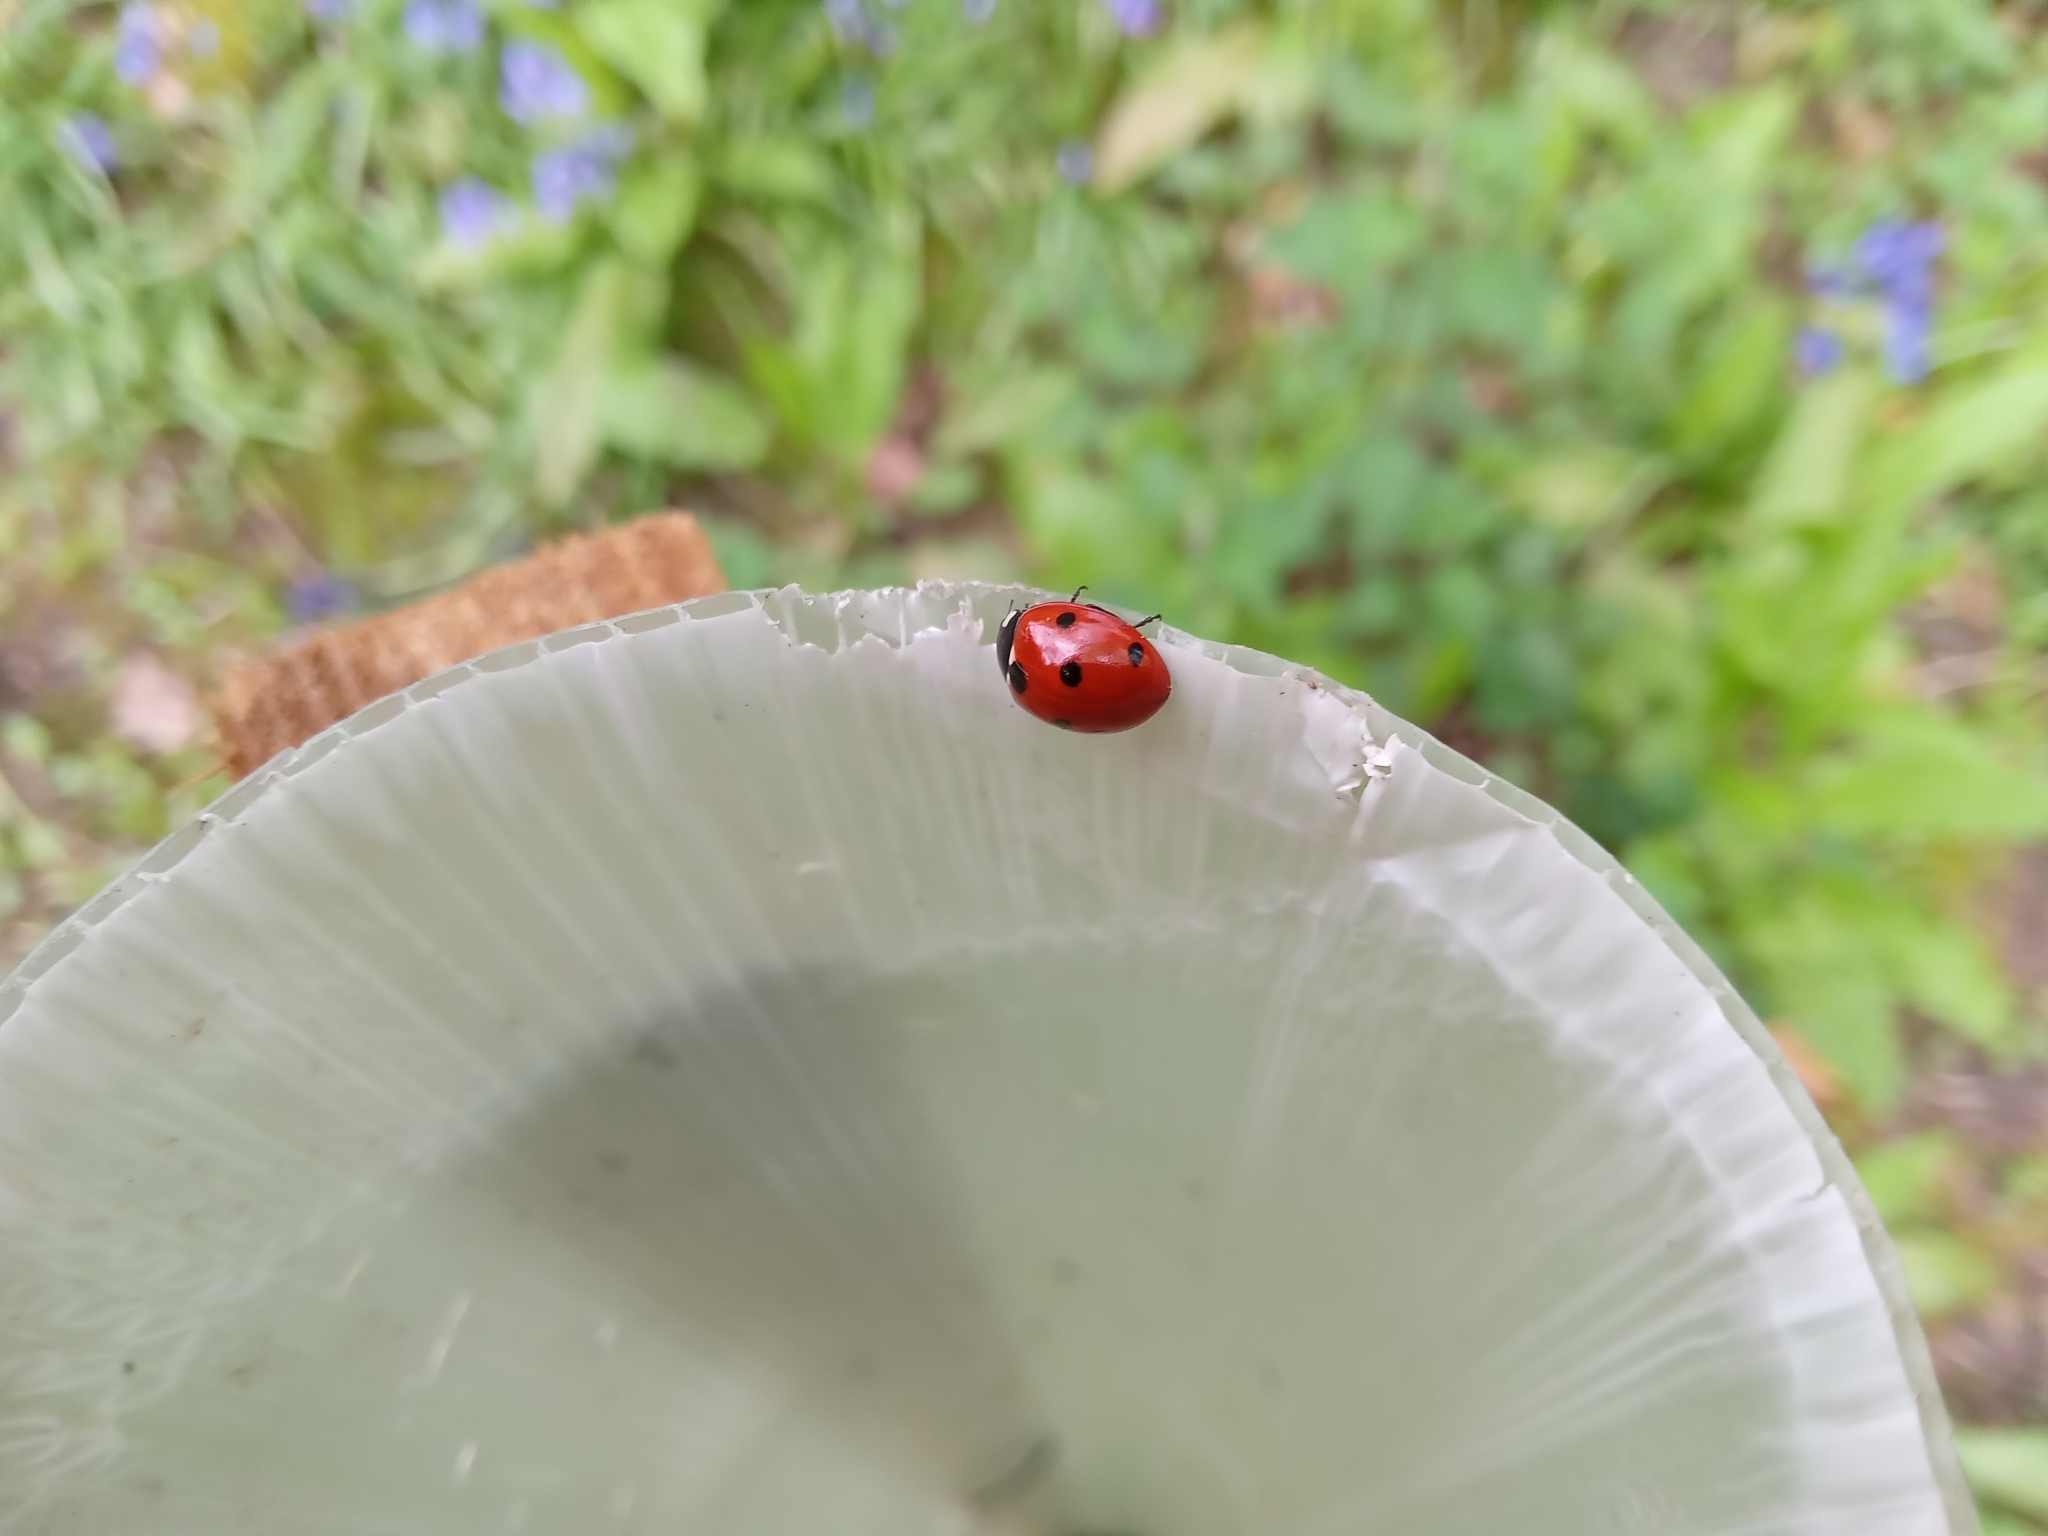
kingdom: Animalia
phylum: Arthropoda
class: Insecta
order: Coleoptera
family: Coccinellidae
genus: Coccinella
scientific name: Coccinella septempunctata
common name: Sevenspotted lady beetle
